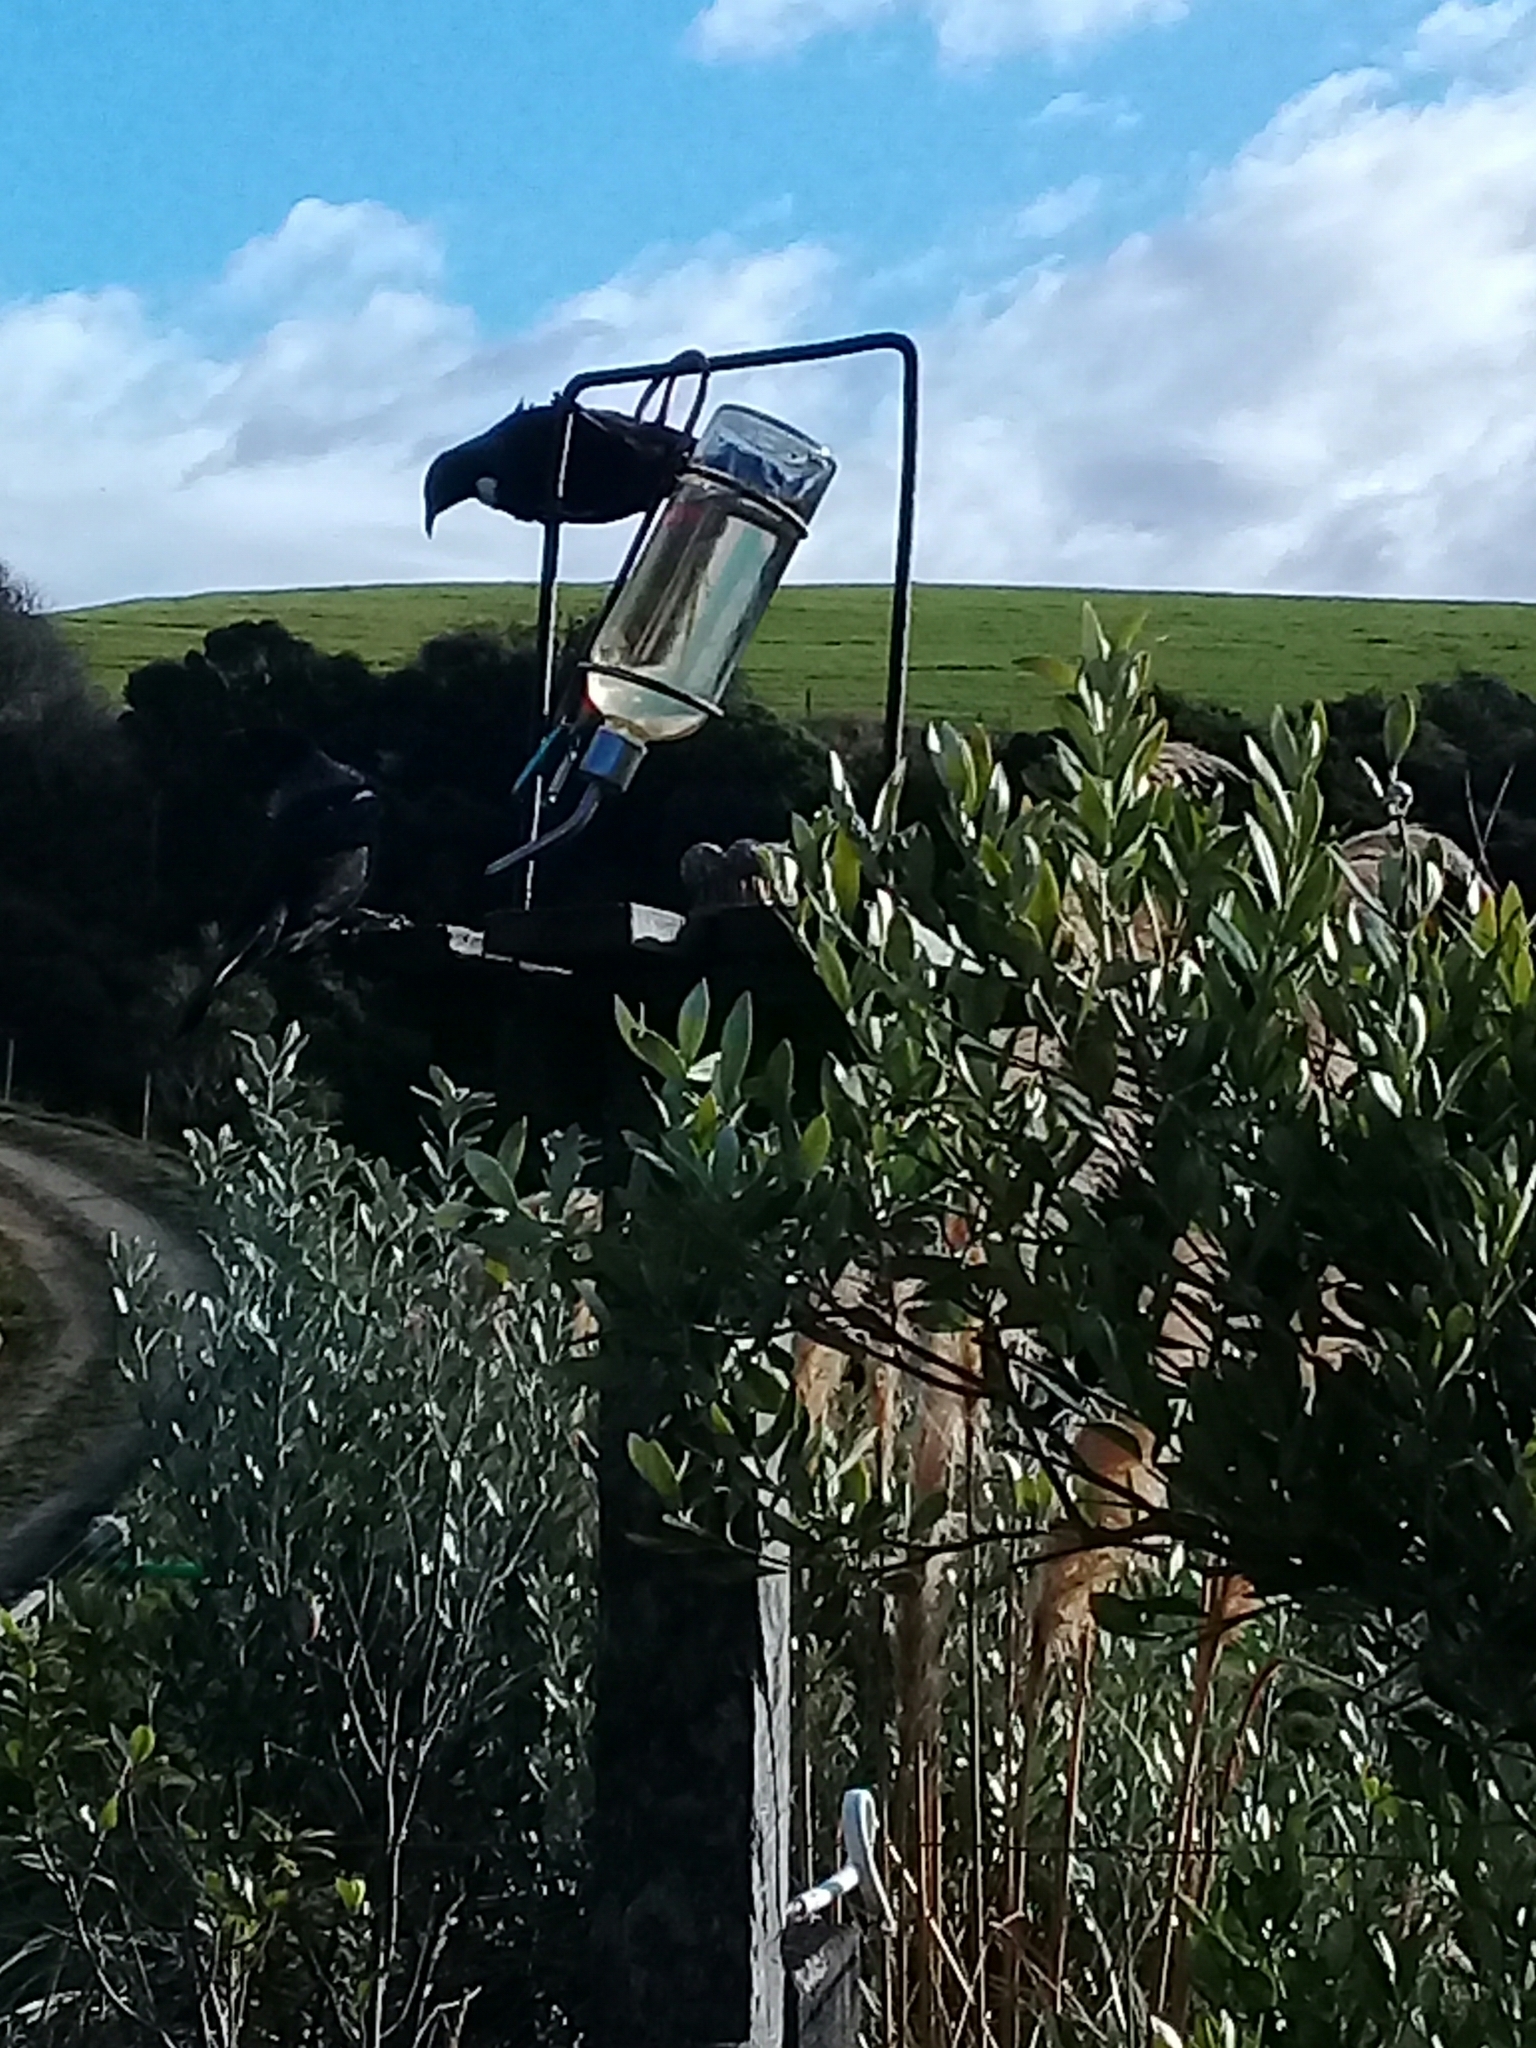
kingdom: Animalia
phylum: Chordata
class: Aves
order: Passeriformes
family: Meliphagidae
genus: Prosthemadera
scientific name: Prosthemadera novaeseelandiae
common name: Tui
